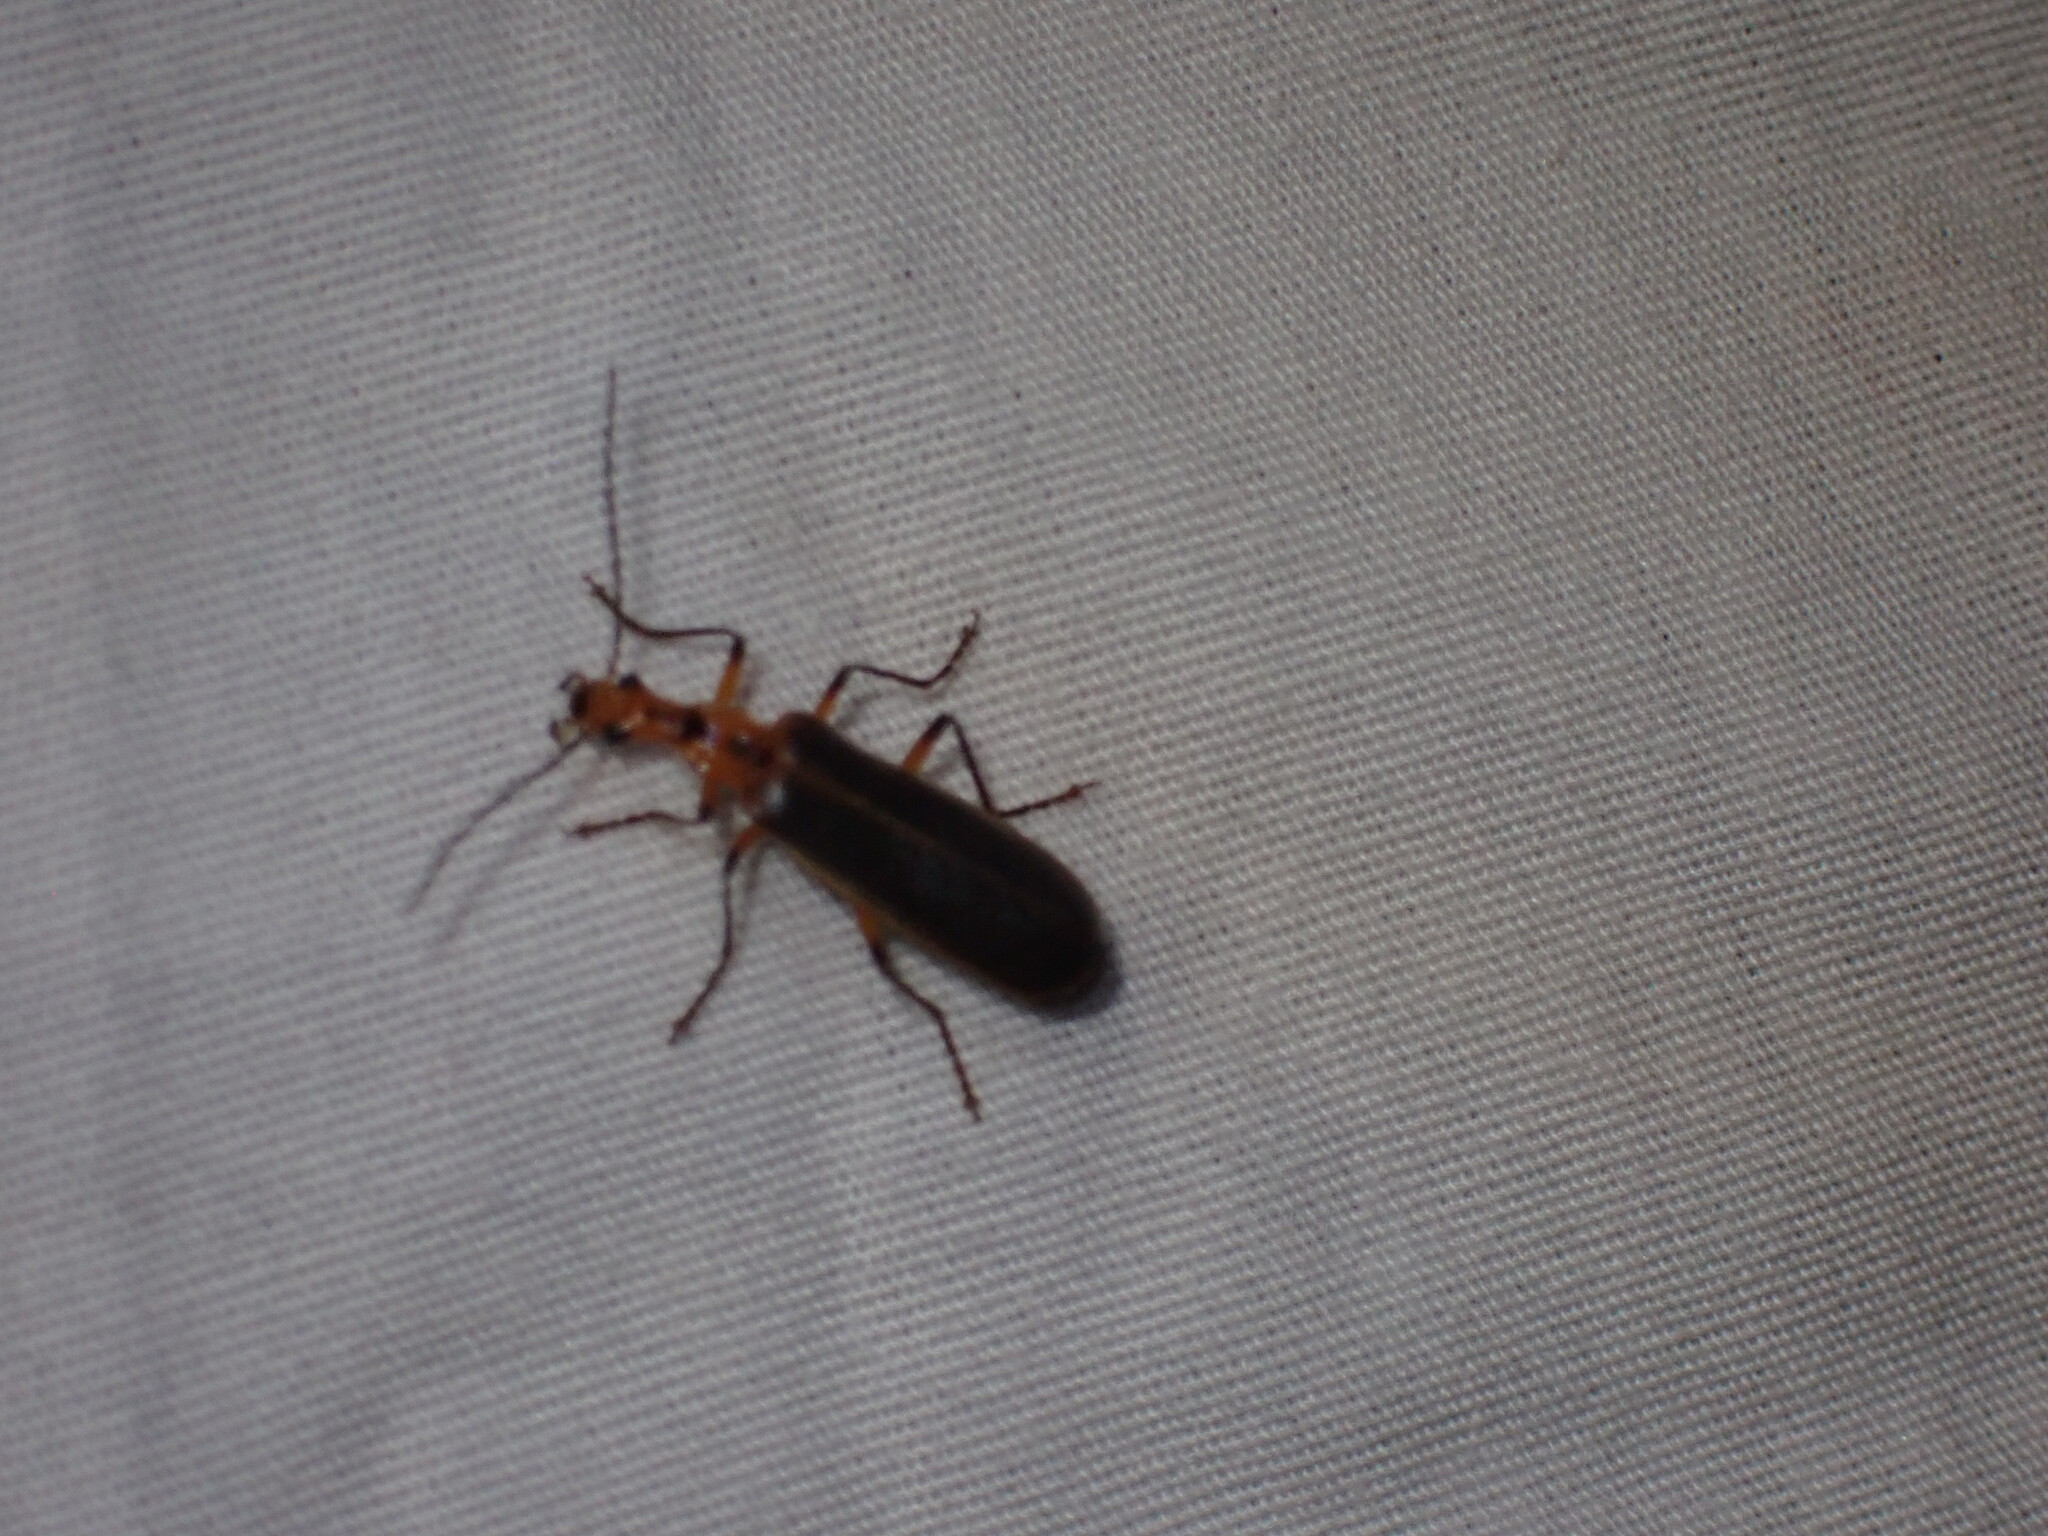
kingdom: Animalia
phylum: Arthropoda
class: Insecta
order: Coleoptera
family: Cantharidae
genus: Podabrus
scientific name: Podabrus protensus
